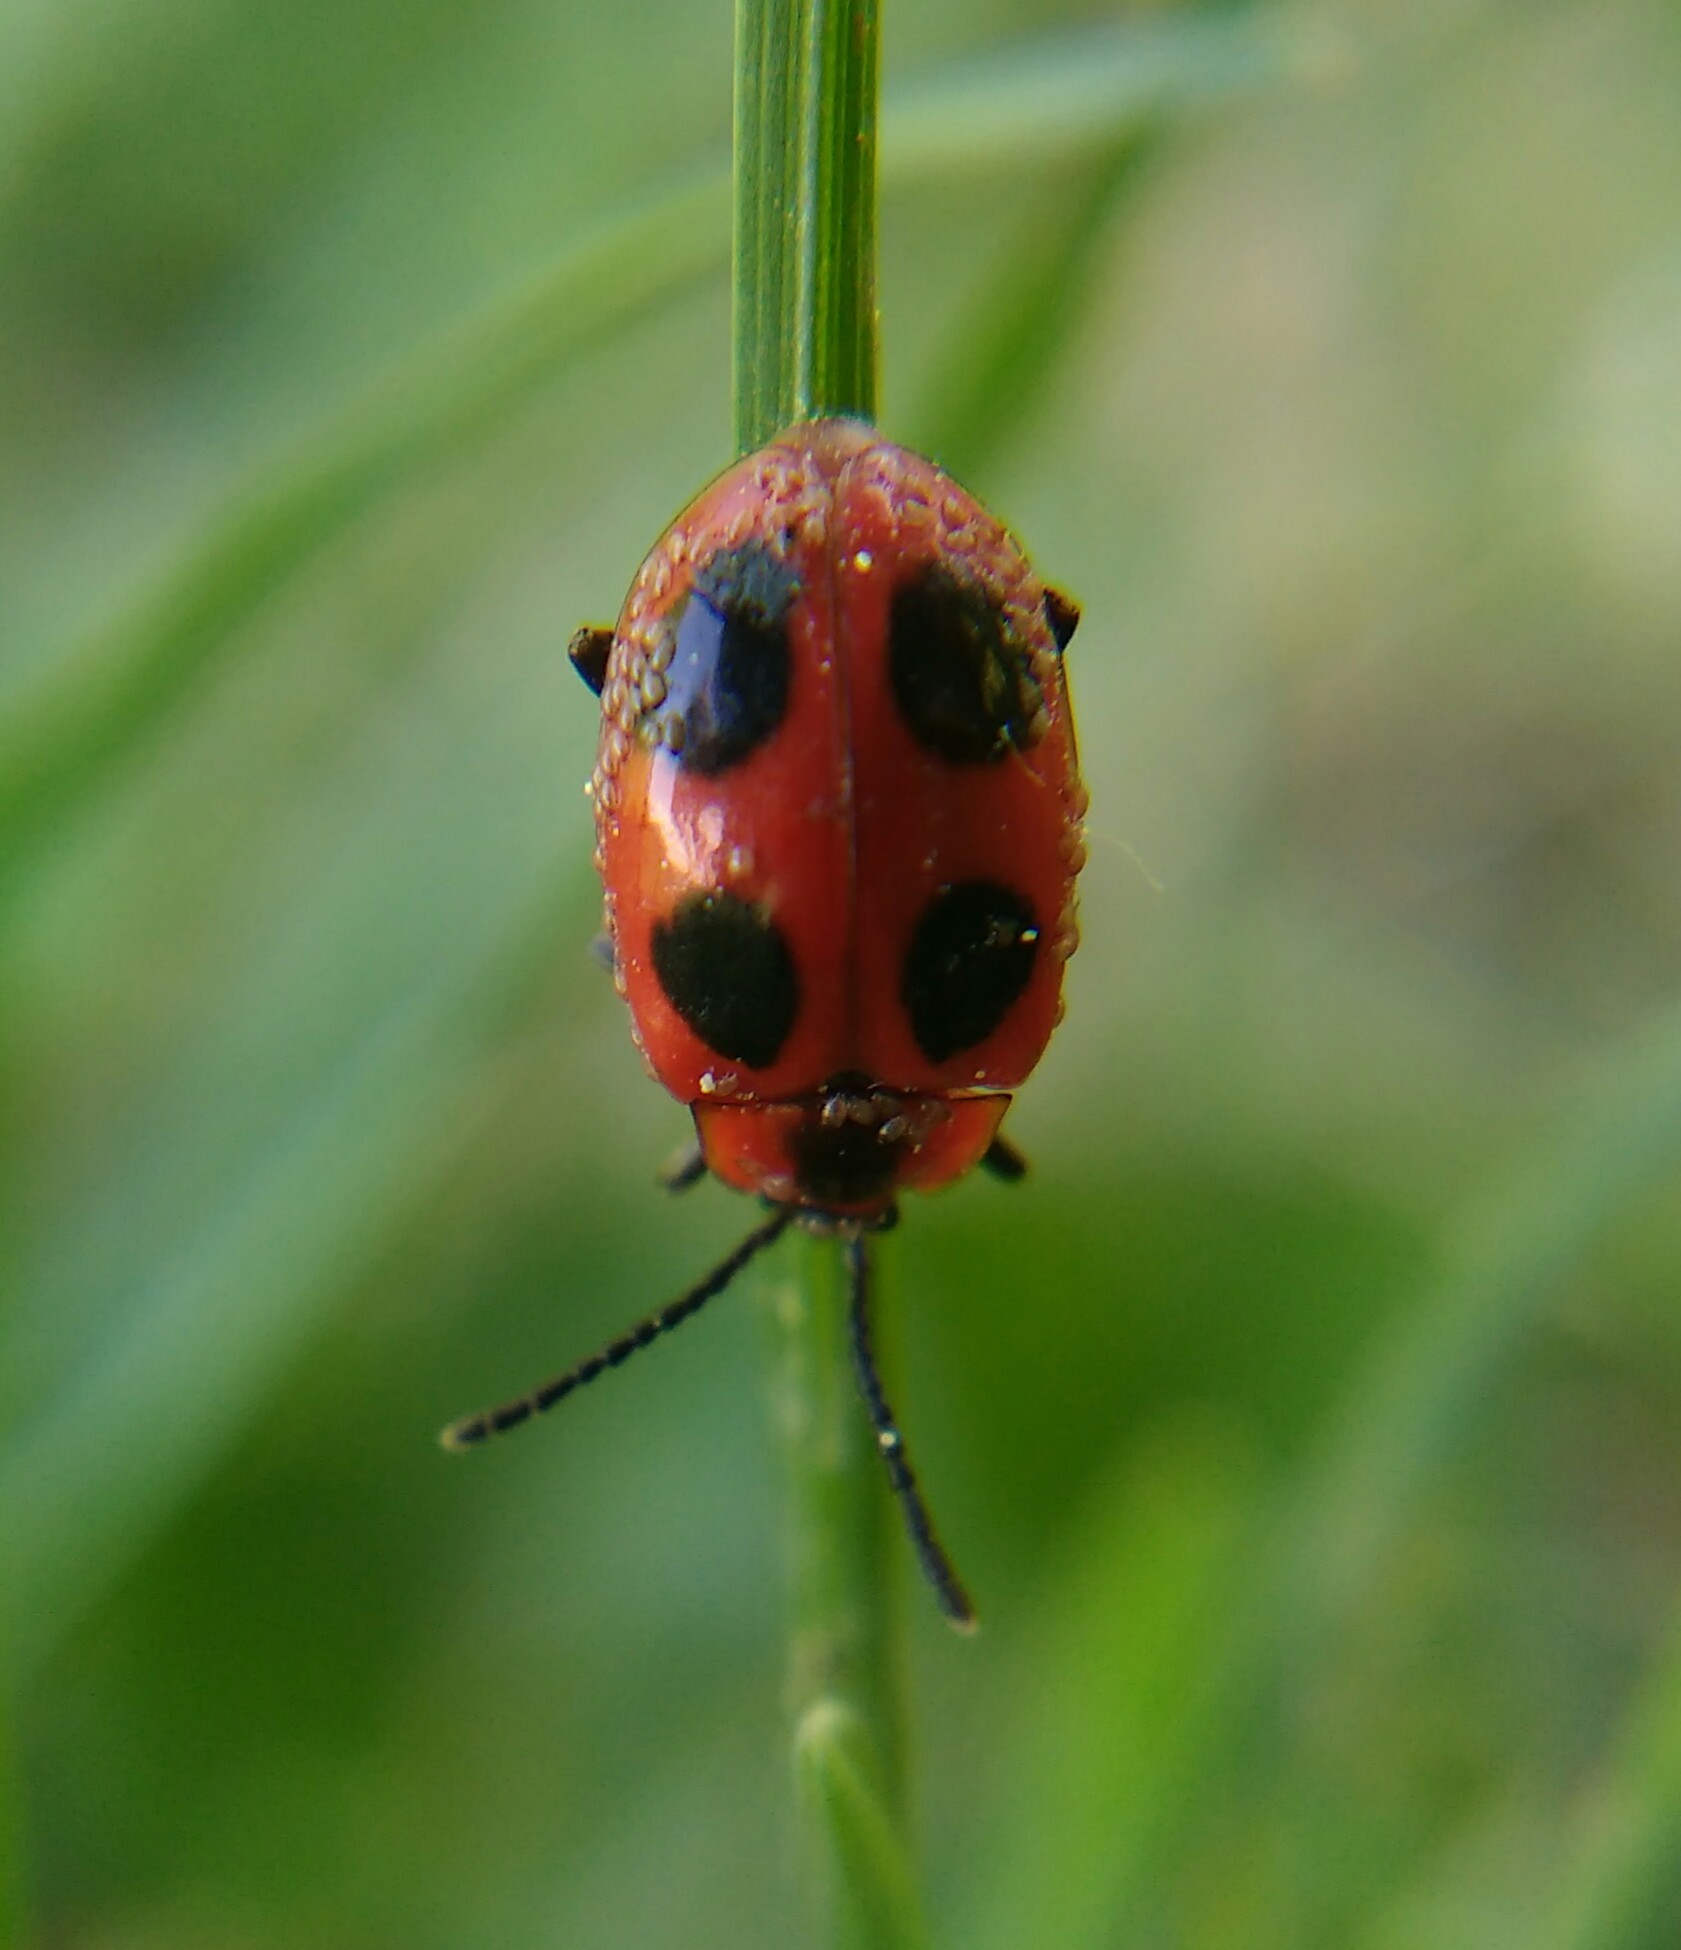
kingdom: Animalia
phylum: Arthropoda
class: Insecta
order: Coleoptera
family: Endomychidae
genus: Endomychus
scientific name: Endomychus coccineus
